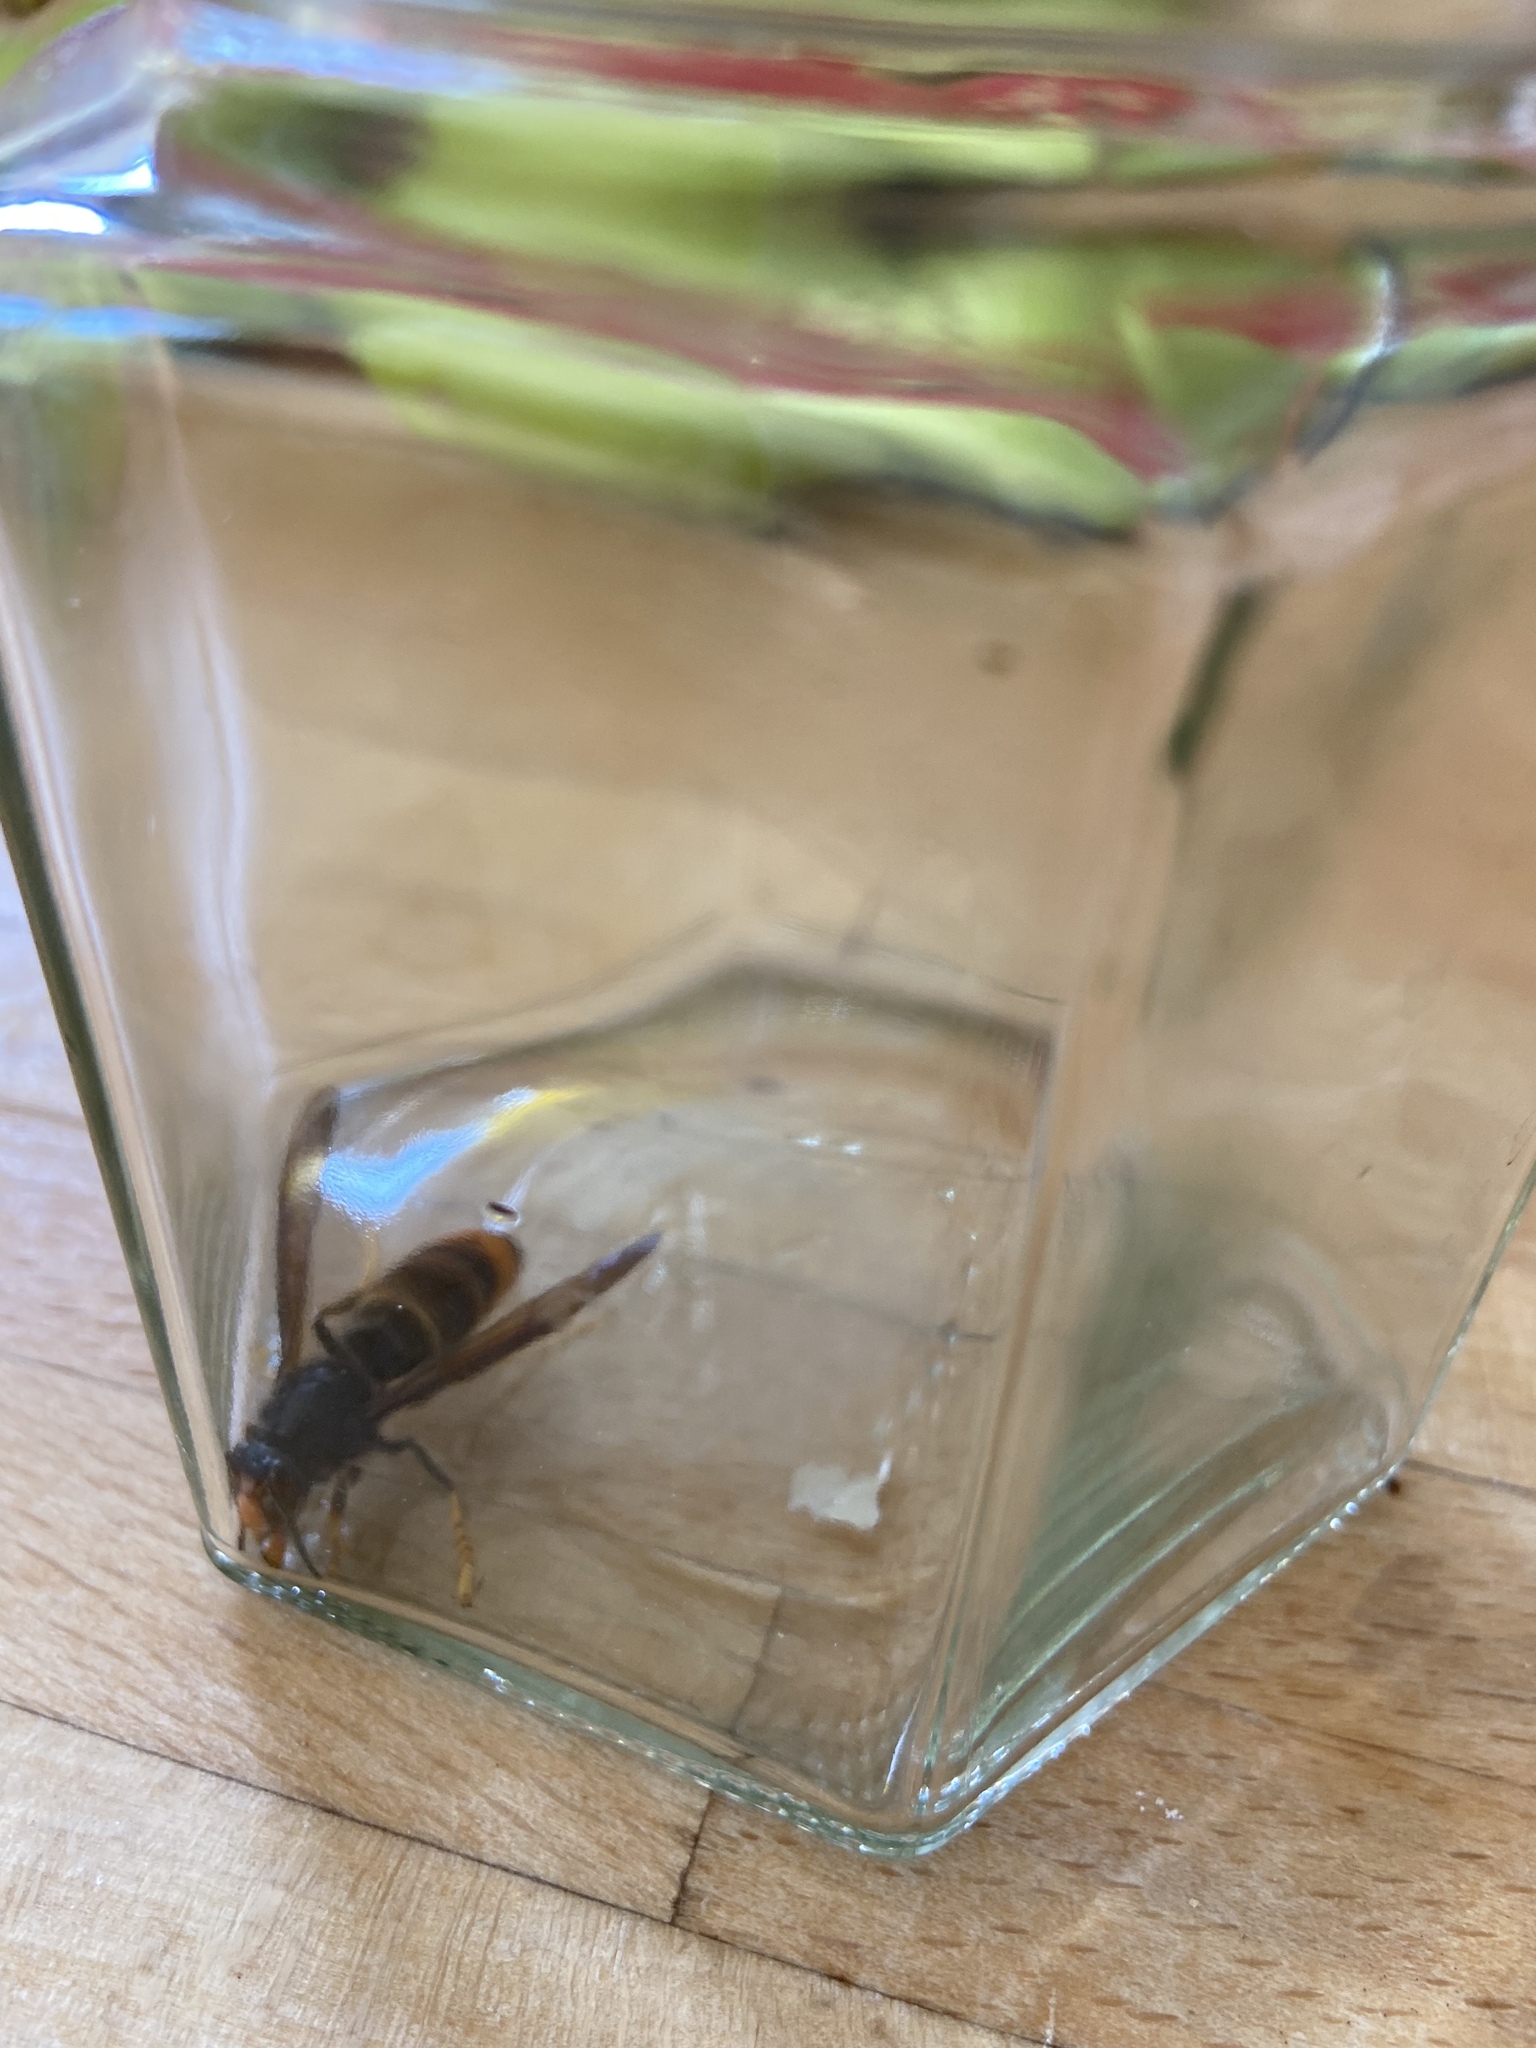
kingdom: Animalia
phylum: Arthropoda
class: Insecta
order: Hymenoptera
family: Vespidae
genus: Vespa
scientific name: Vespa velutina
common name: Asian hornet
